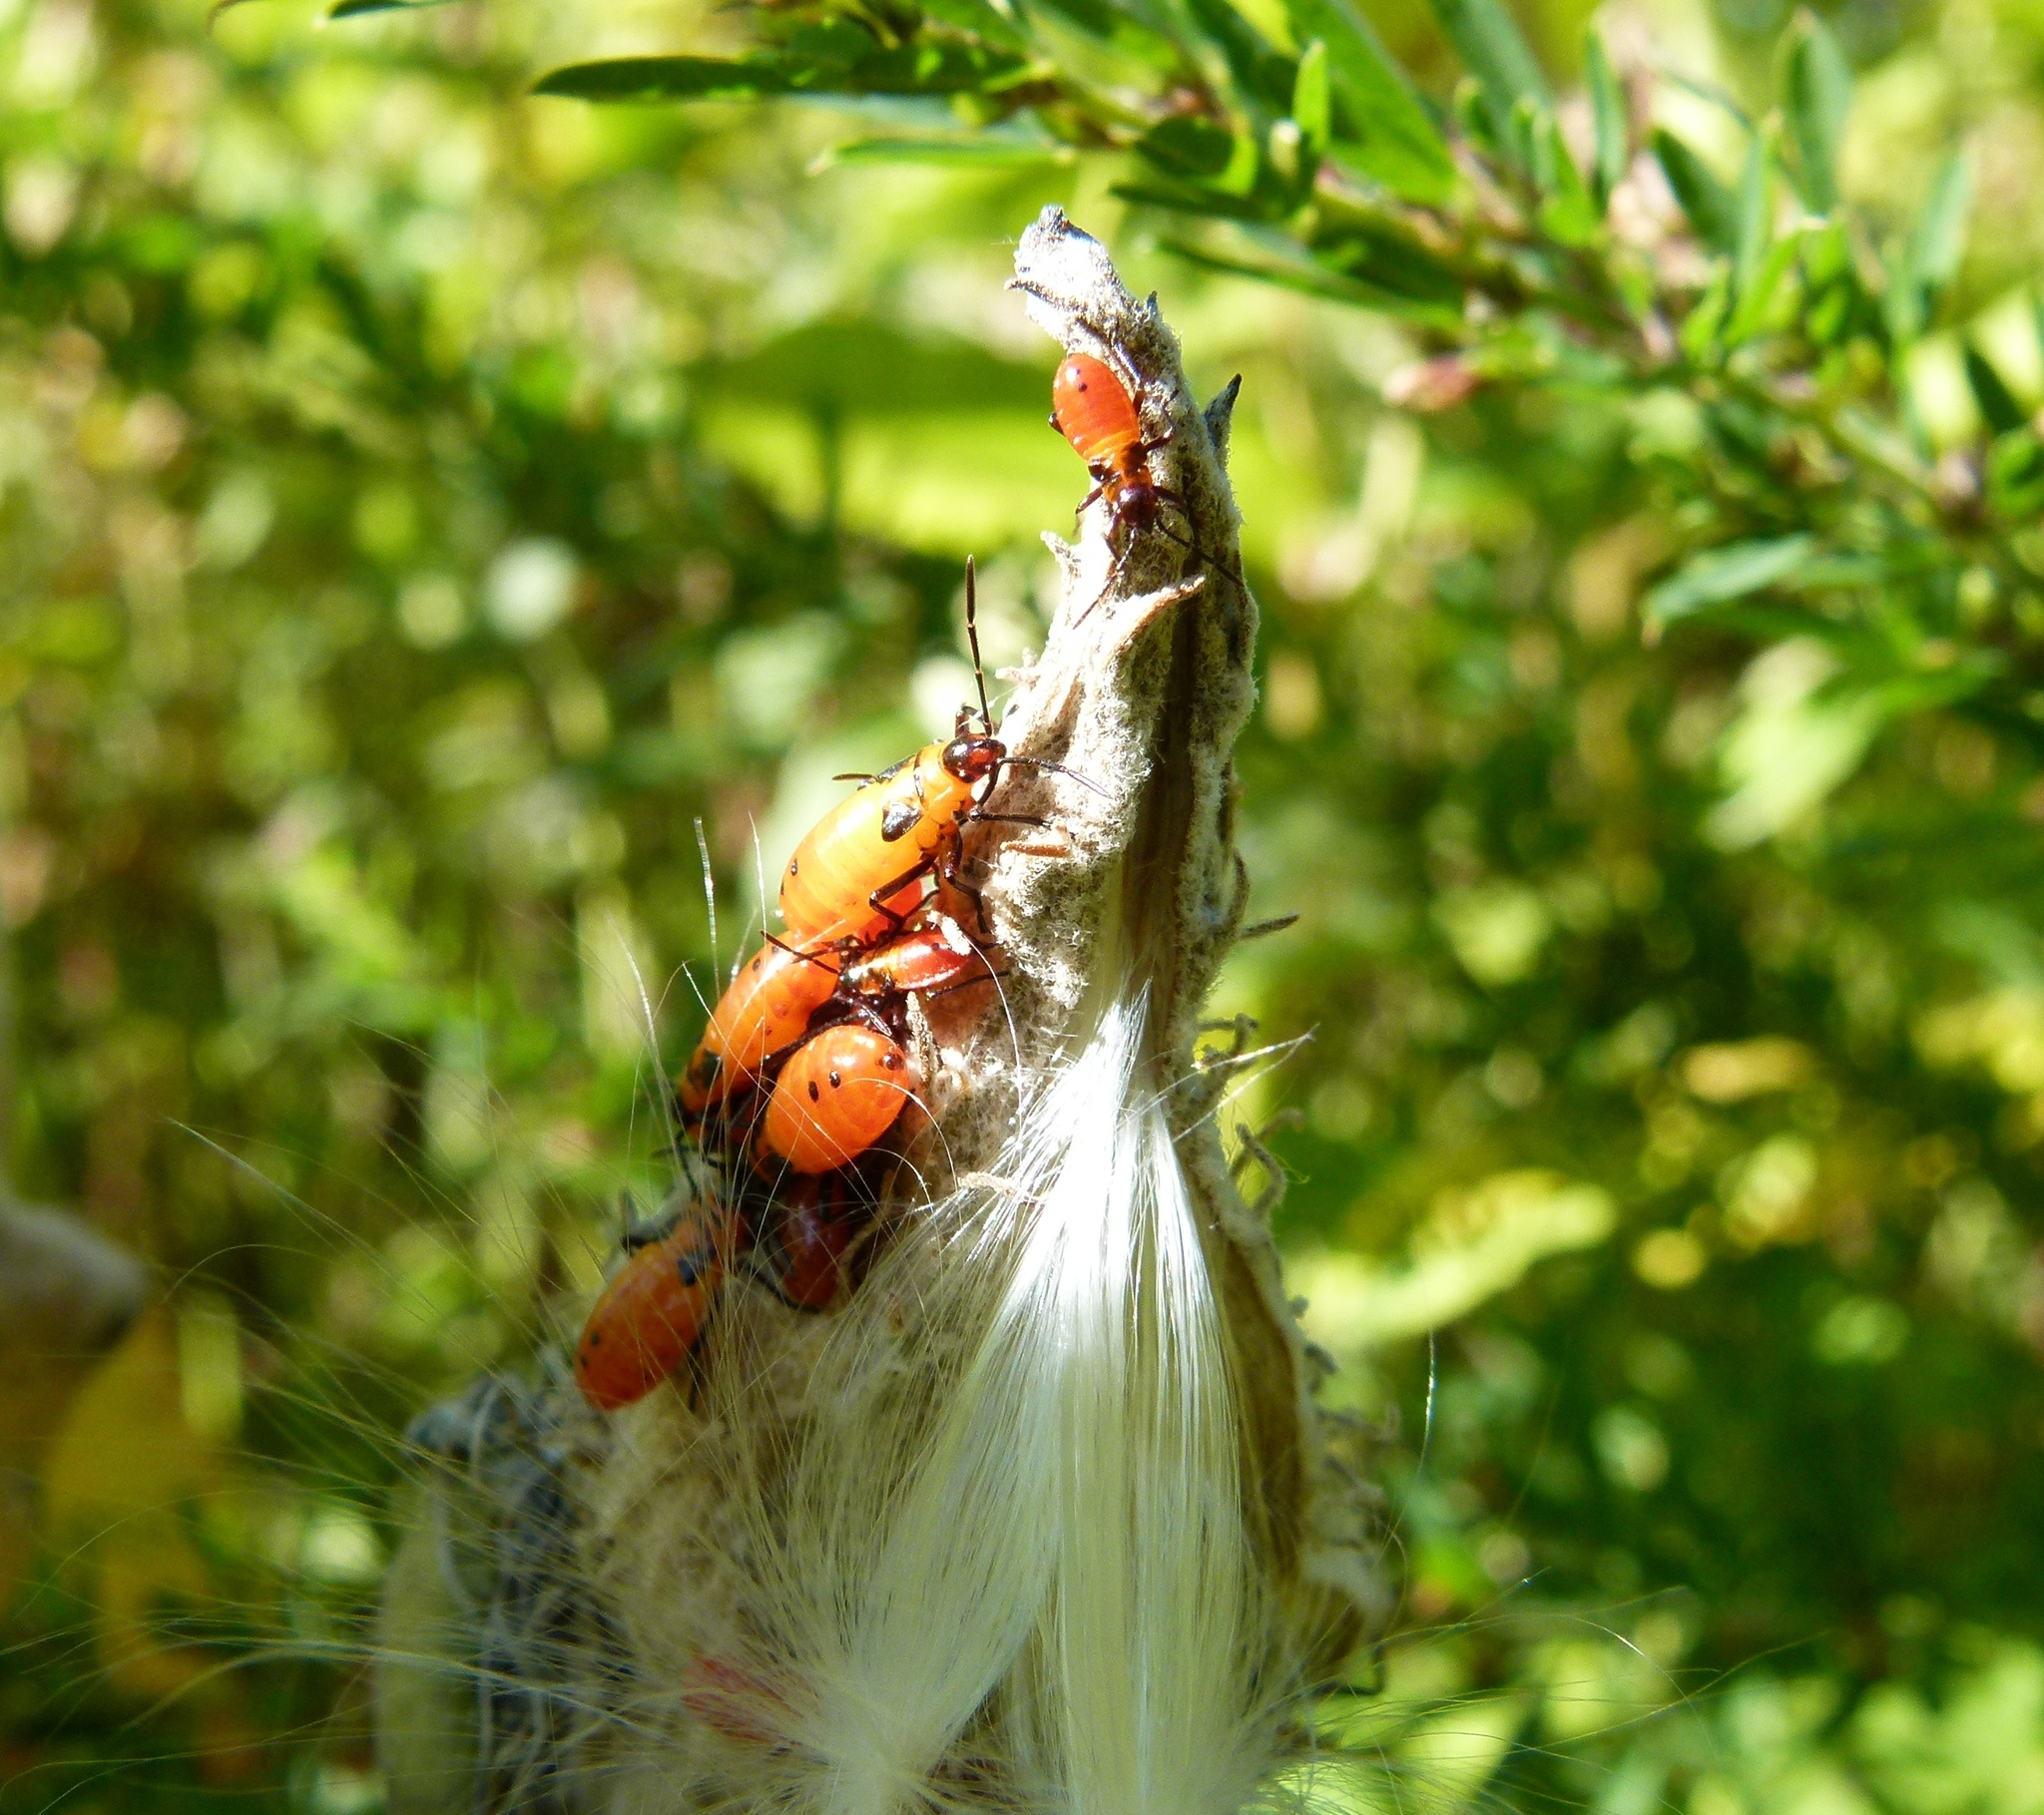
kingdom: Animalia
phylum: Arthropoda
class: Insecta
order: Hemiptera
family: Lygaeidae
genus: Oncopeltus
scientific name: Oncopeltus fasciatus
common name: Large milkweed bug
